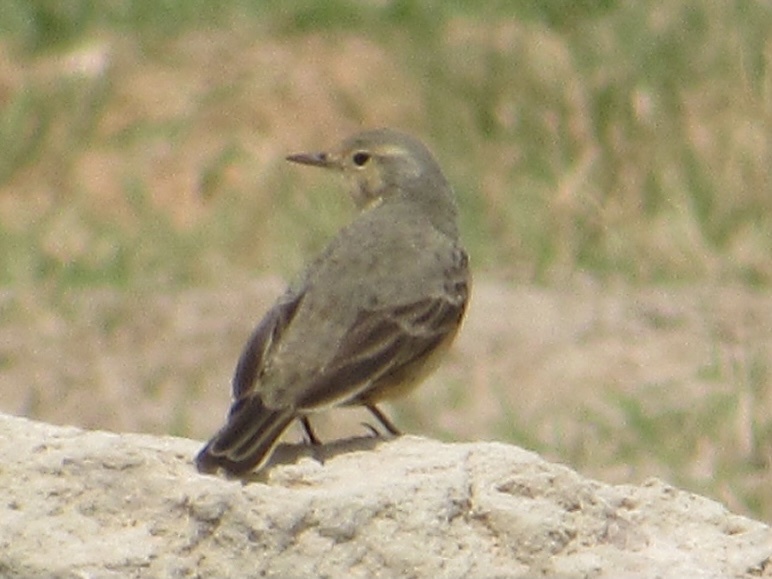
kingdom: Animalia
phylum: Chordata
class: Aves
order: Passeriformes
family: Motacillidae
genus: Anthus
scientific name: Anthus rubescens
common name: Buff-bellied pipit
